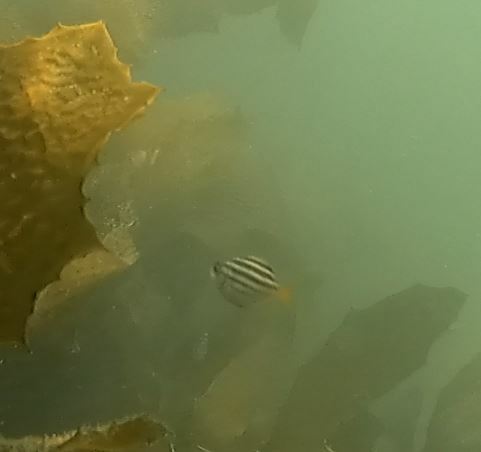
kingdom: Animalia
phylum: Chordata
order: Perciformes
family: Kyphosidae
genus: Atypichthys
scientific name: Atypichthys strigatus
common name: Australian mado
